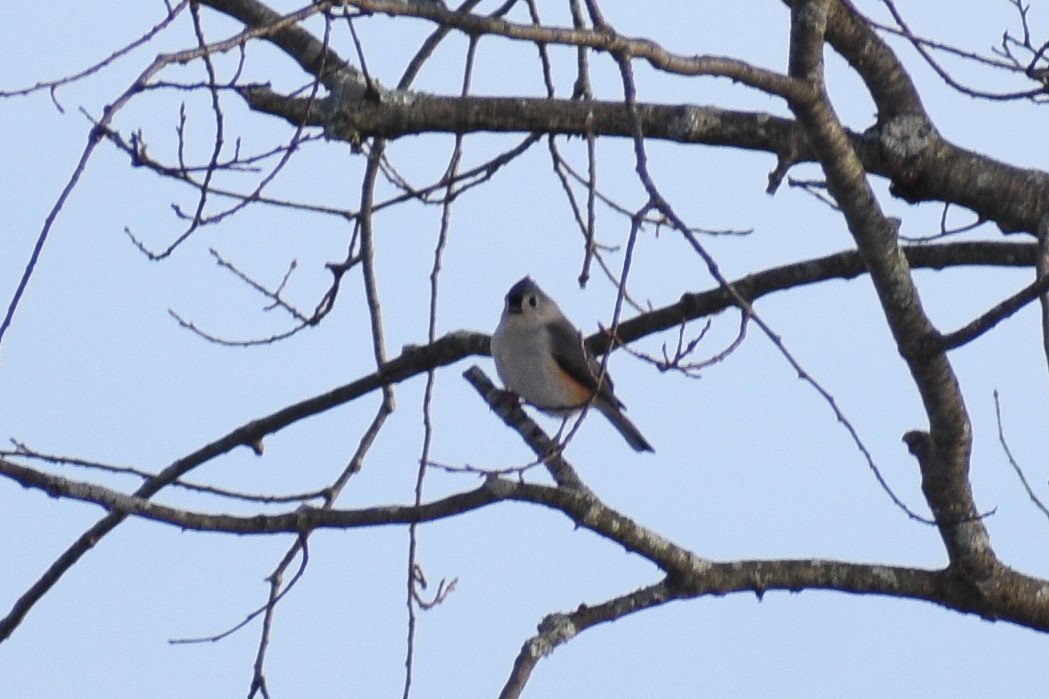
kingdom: Animalia
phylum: Chordata
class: Aves
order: Passeriformes
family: Paridae
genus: Baeolophus
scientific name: Baeolophus bicolor
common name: Tufted titmouse
